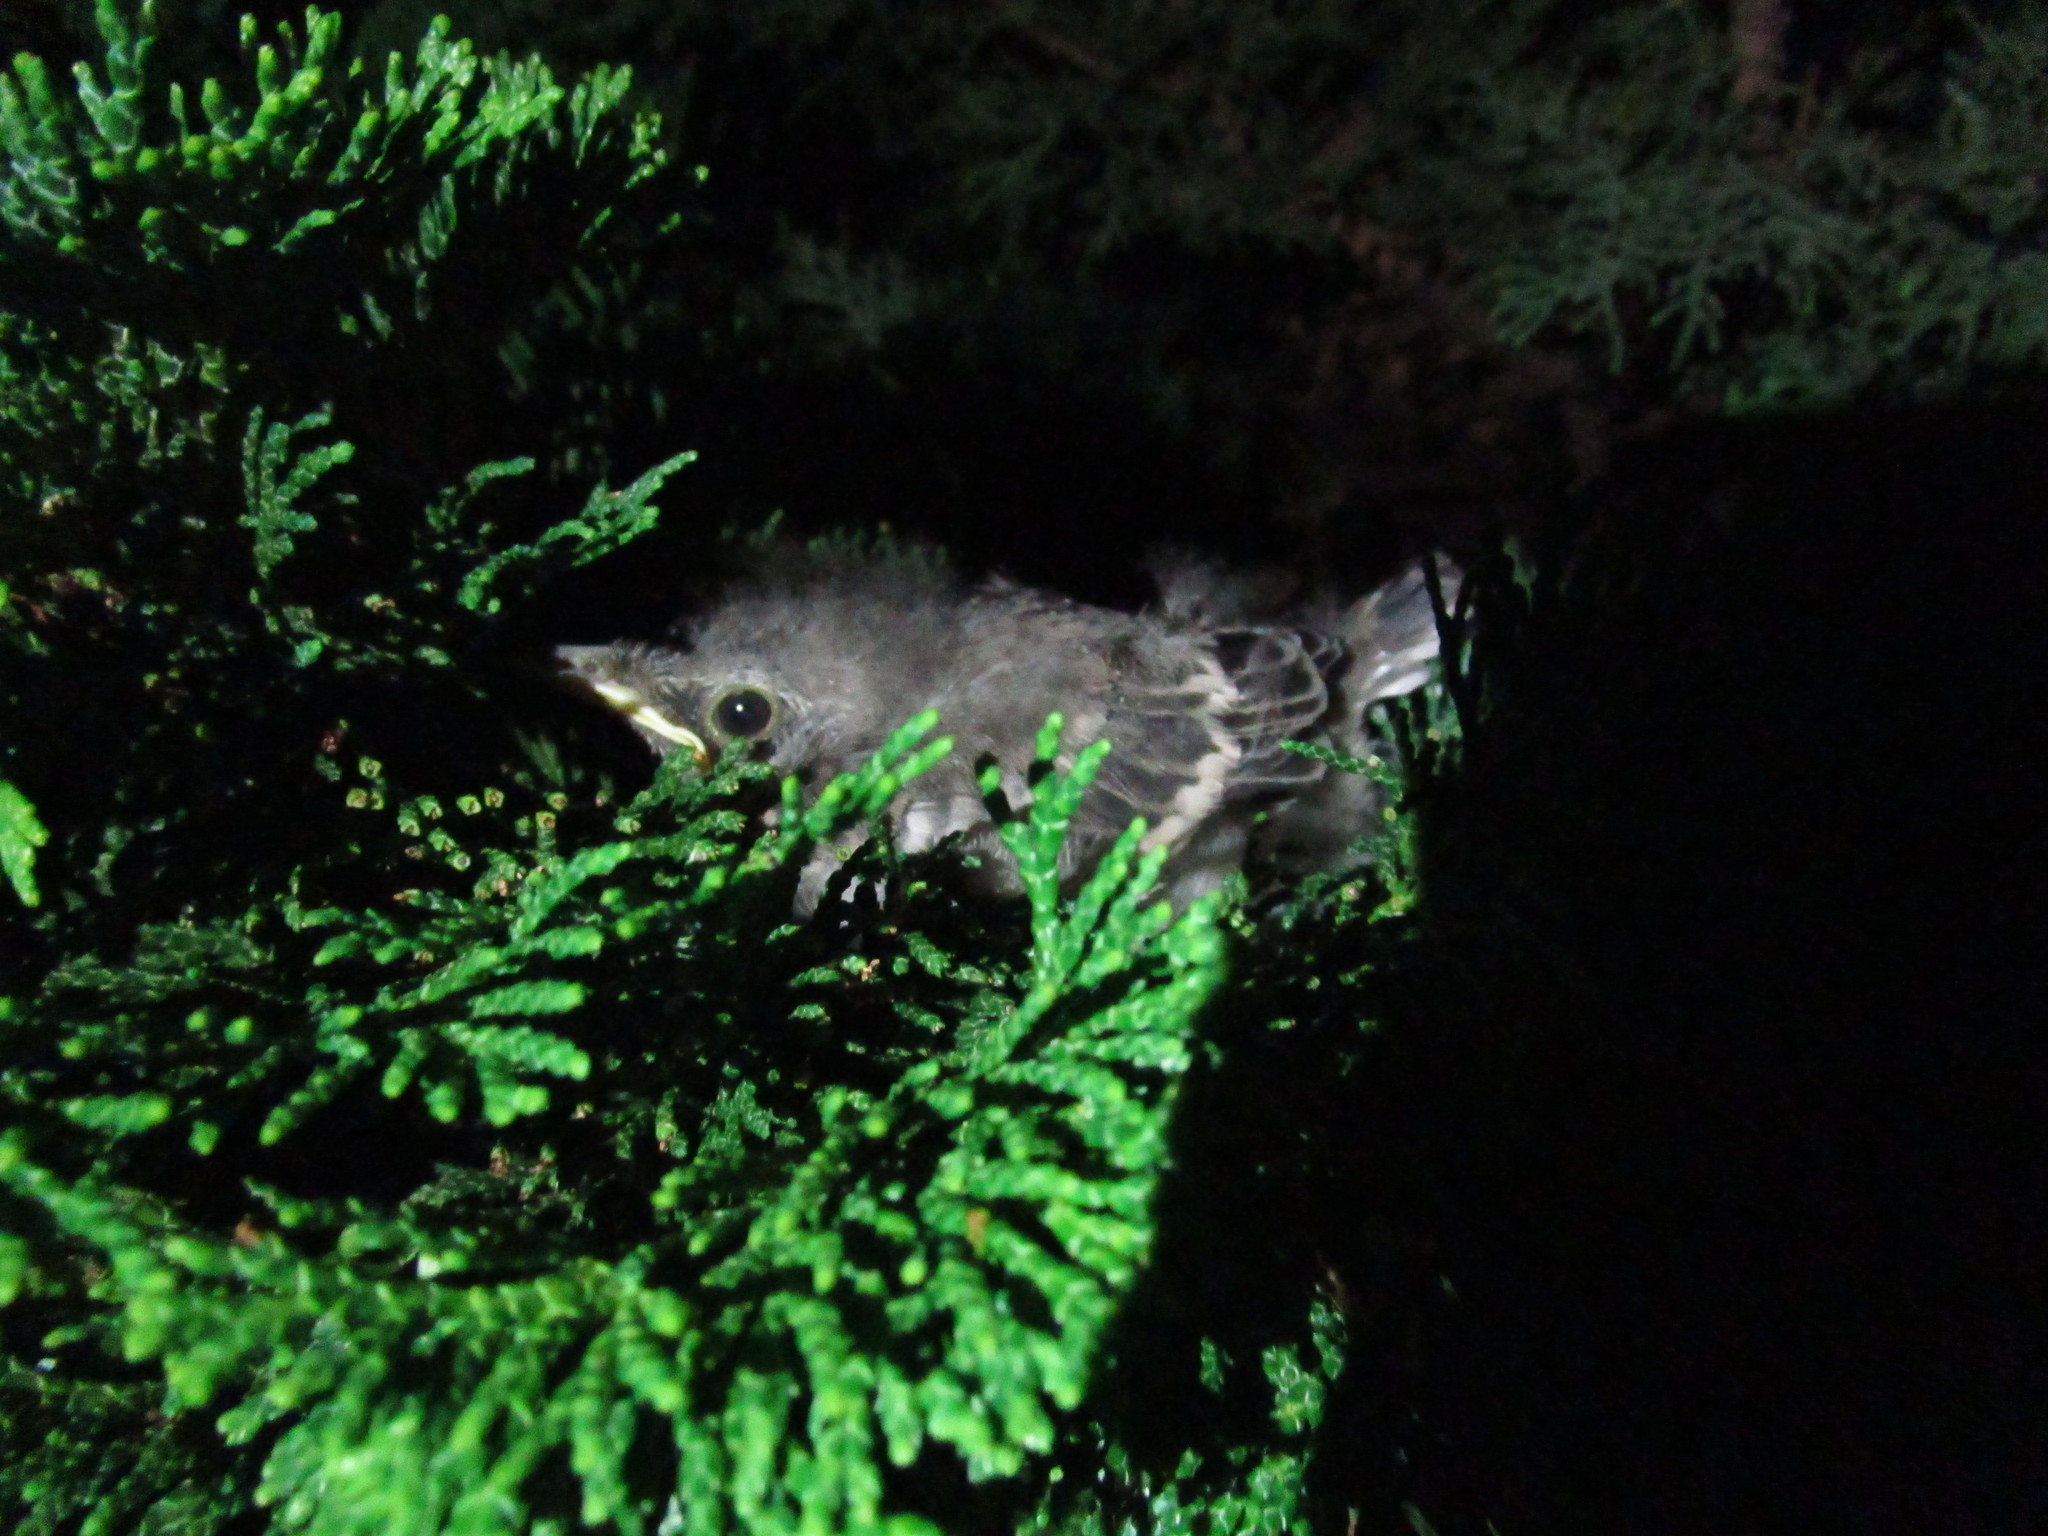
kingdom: Animalia
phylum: Chordata
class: Aves
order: Passeriformes
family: Mimidae
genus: Mimus
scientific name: Mimus polyglottos
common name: Northern mockingbird
